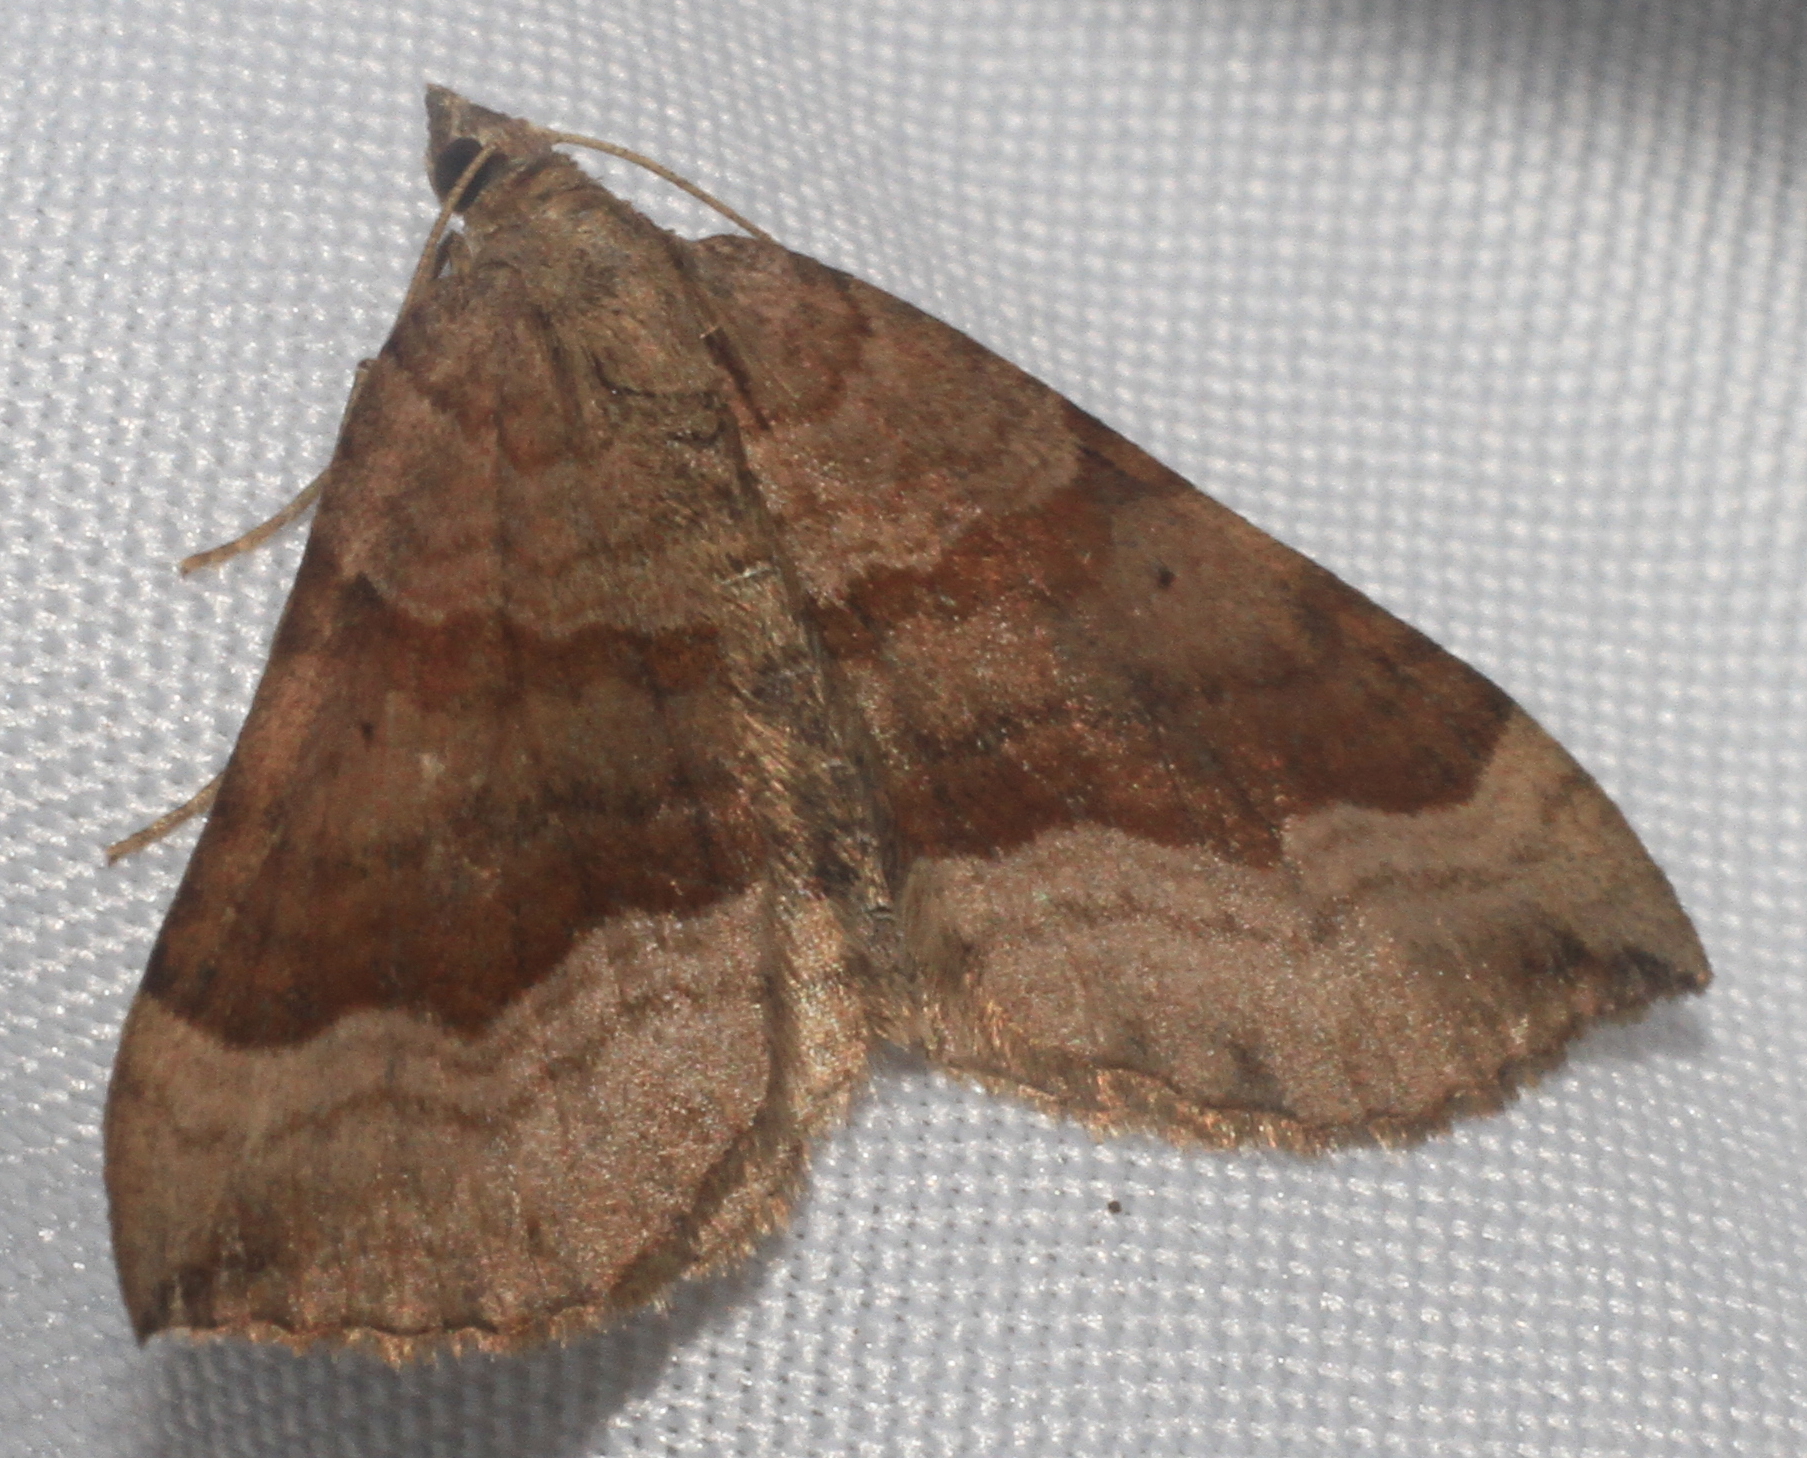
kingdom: Animalia
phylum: Arthropoda
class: Insecta
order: Lepidoptera
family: Geometridae
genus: Scotopteryx
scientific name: Scotopteryx chenopodiata
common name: Shaded broad-bar
